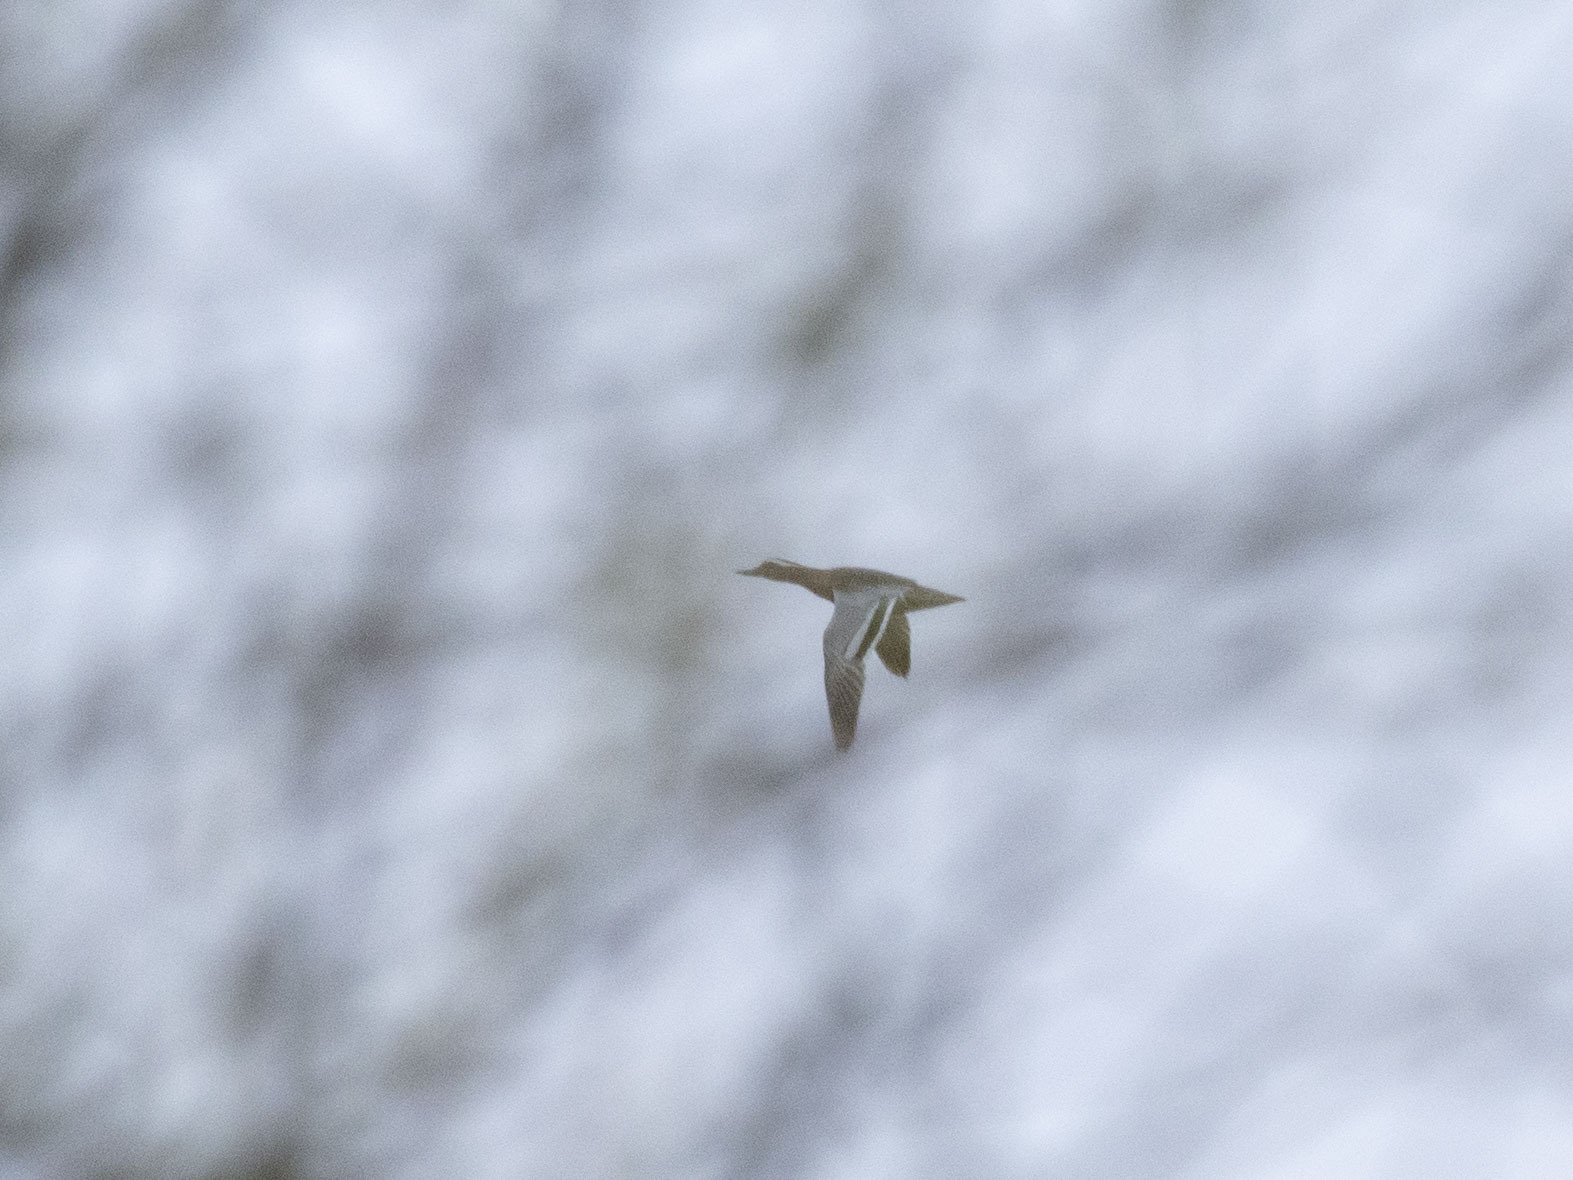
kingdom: Animalia
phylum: Chordata
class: Aves
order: Anseriformes
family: Anatidae
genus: Spatula
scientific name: Spatula querquedula
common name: Garganey
